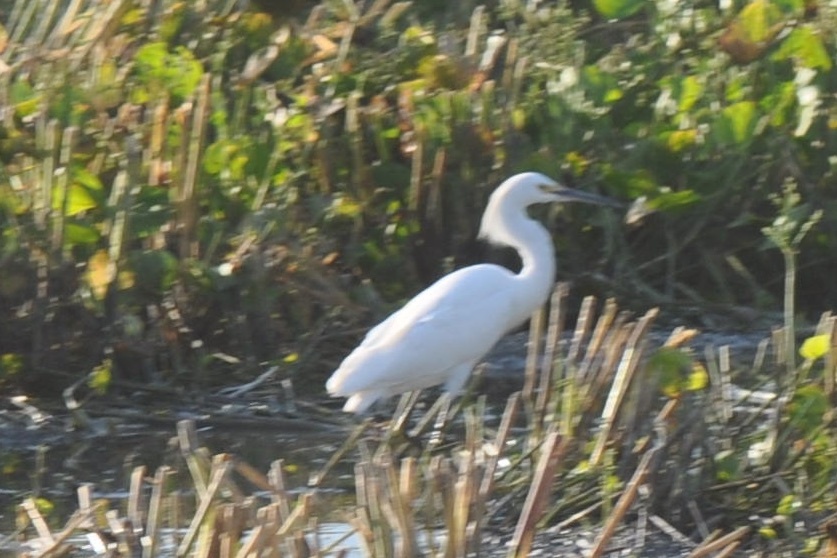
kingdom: Animalia
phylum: Chordata
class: Aves
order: Pelecaniformes
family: Ardeidae
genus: Egretta
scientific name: Egretta thula
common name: Snowy egret
